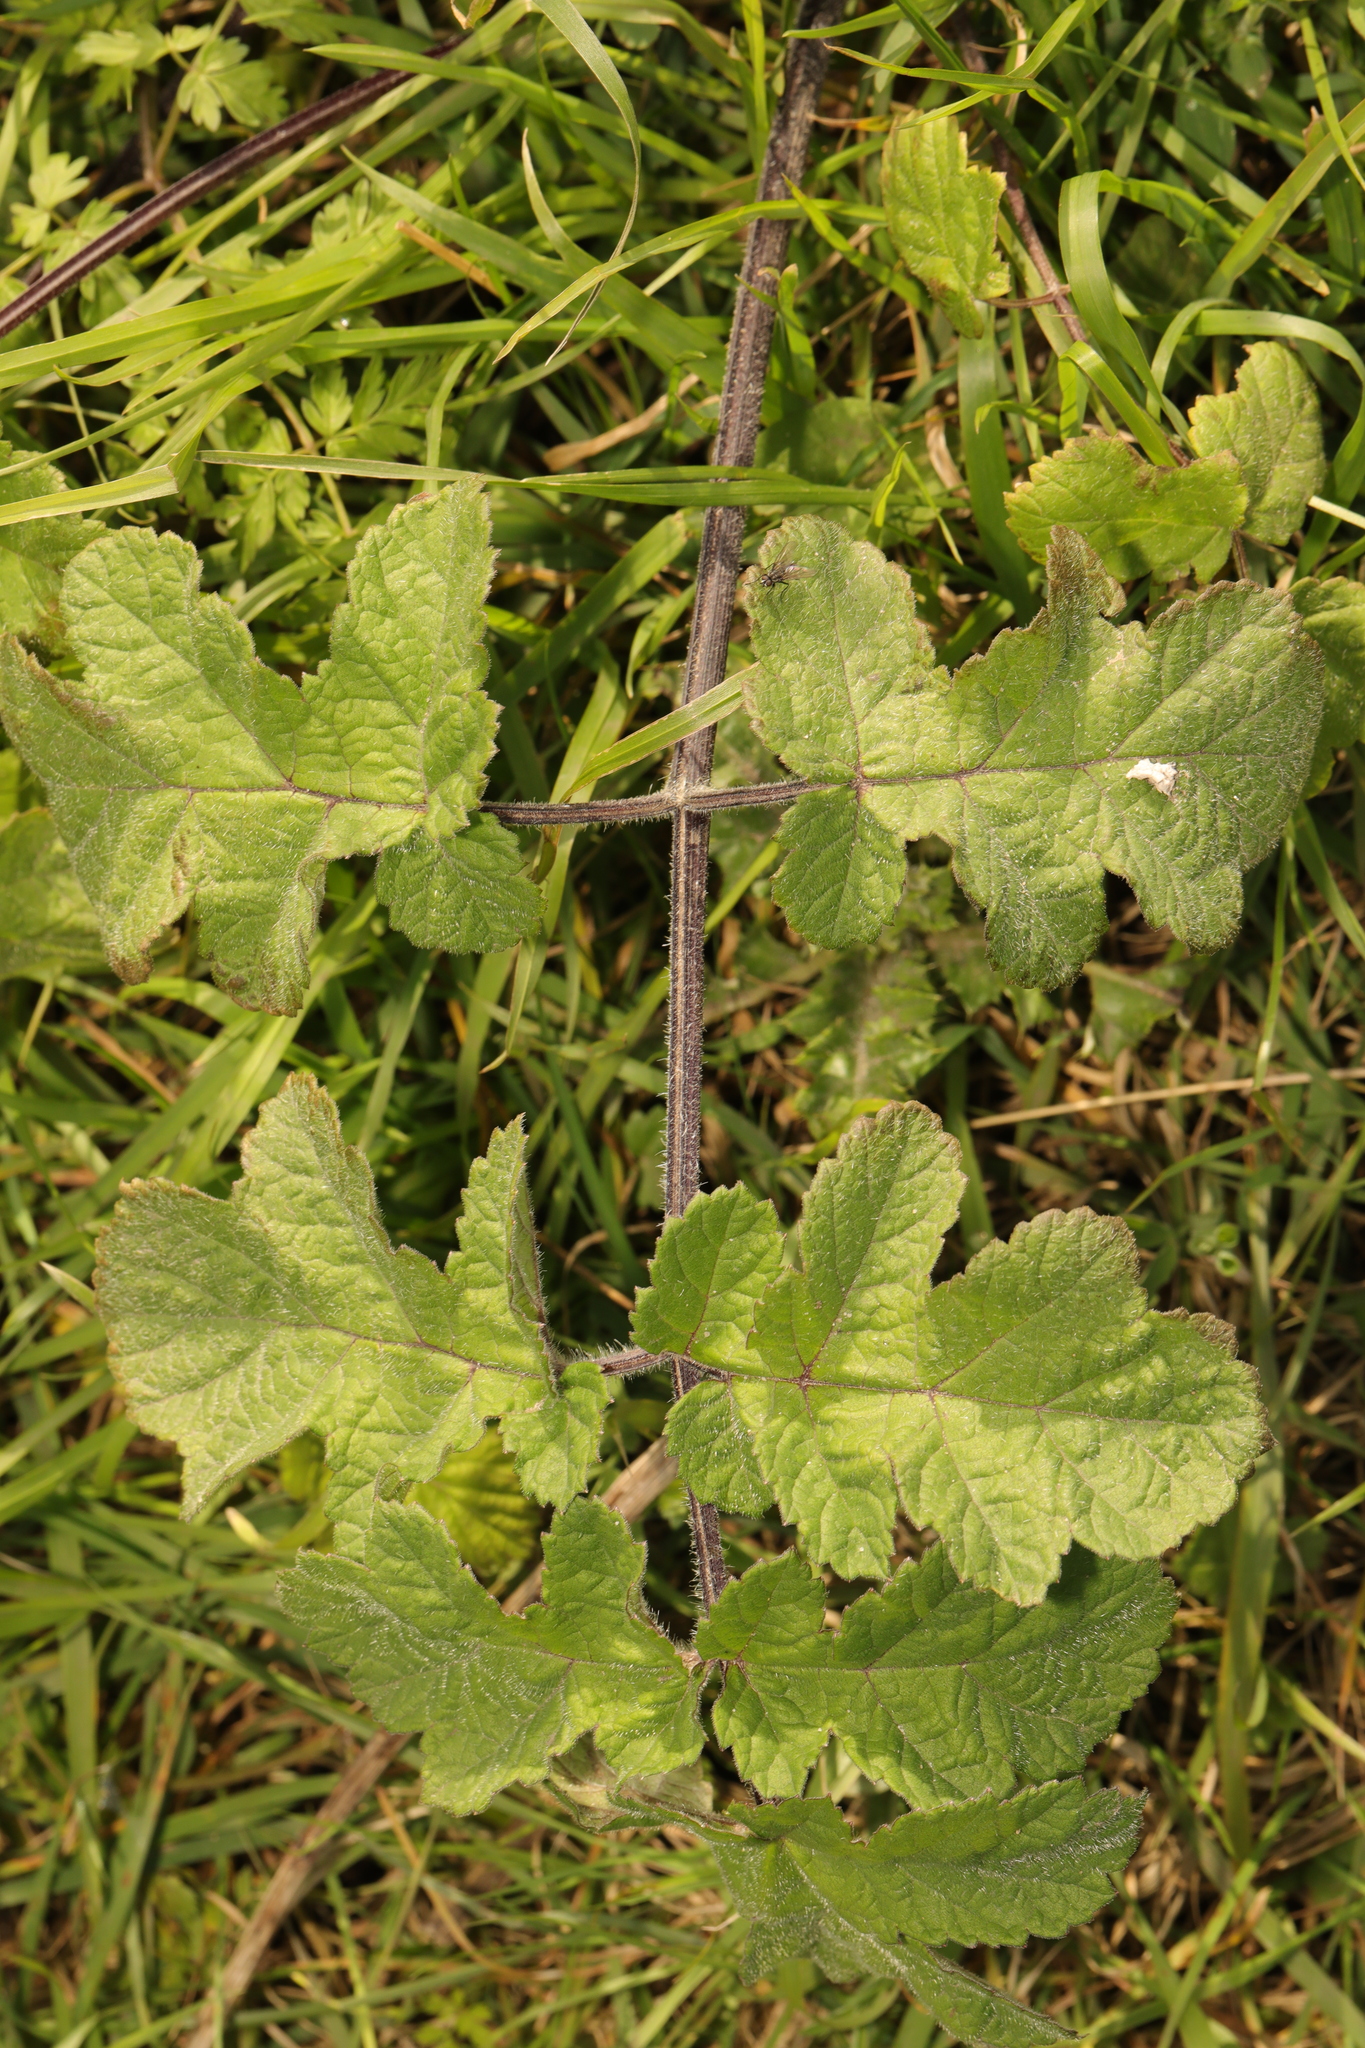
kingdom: Plantae
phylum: Tracheophyta
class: Magnoliopsida
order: Apiales
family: Apiaceae
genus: Heracleum
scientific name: Heracleum sphondylium
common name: Hogweed
